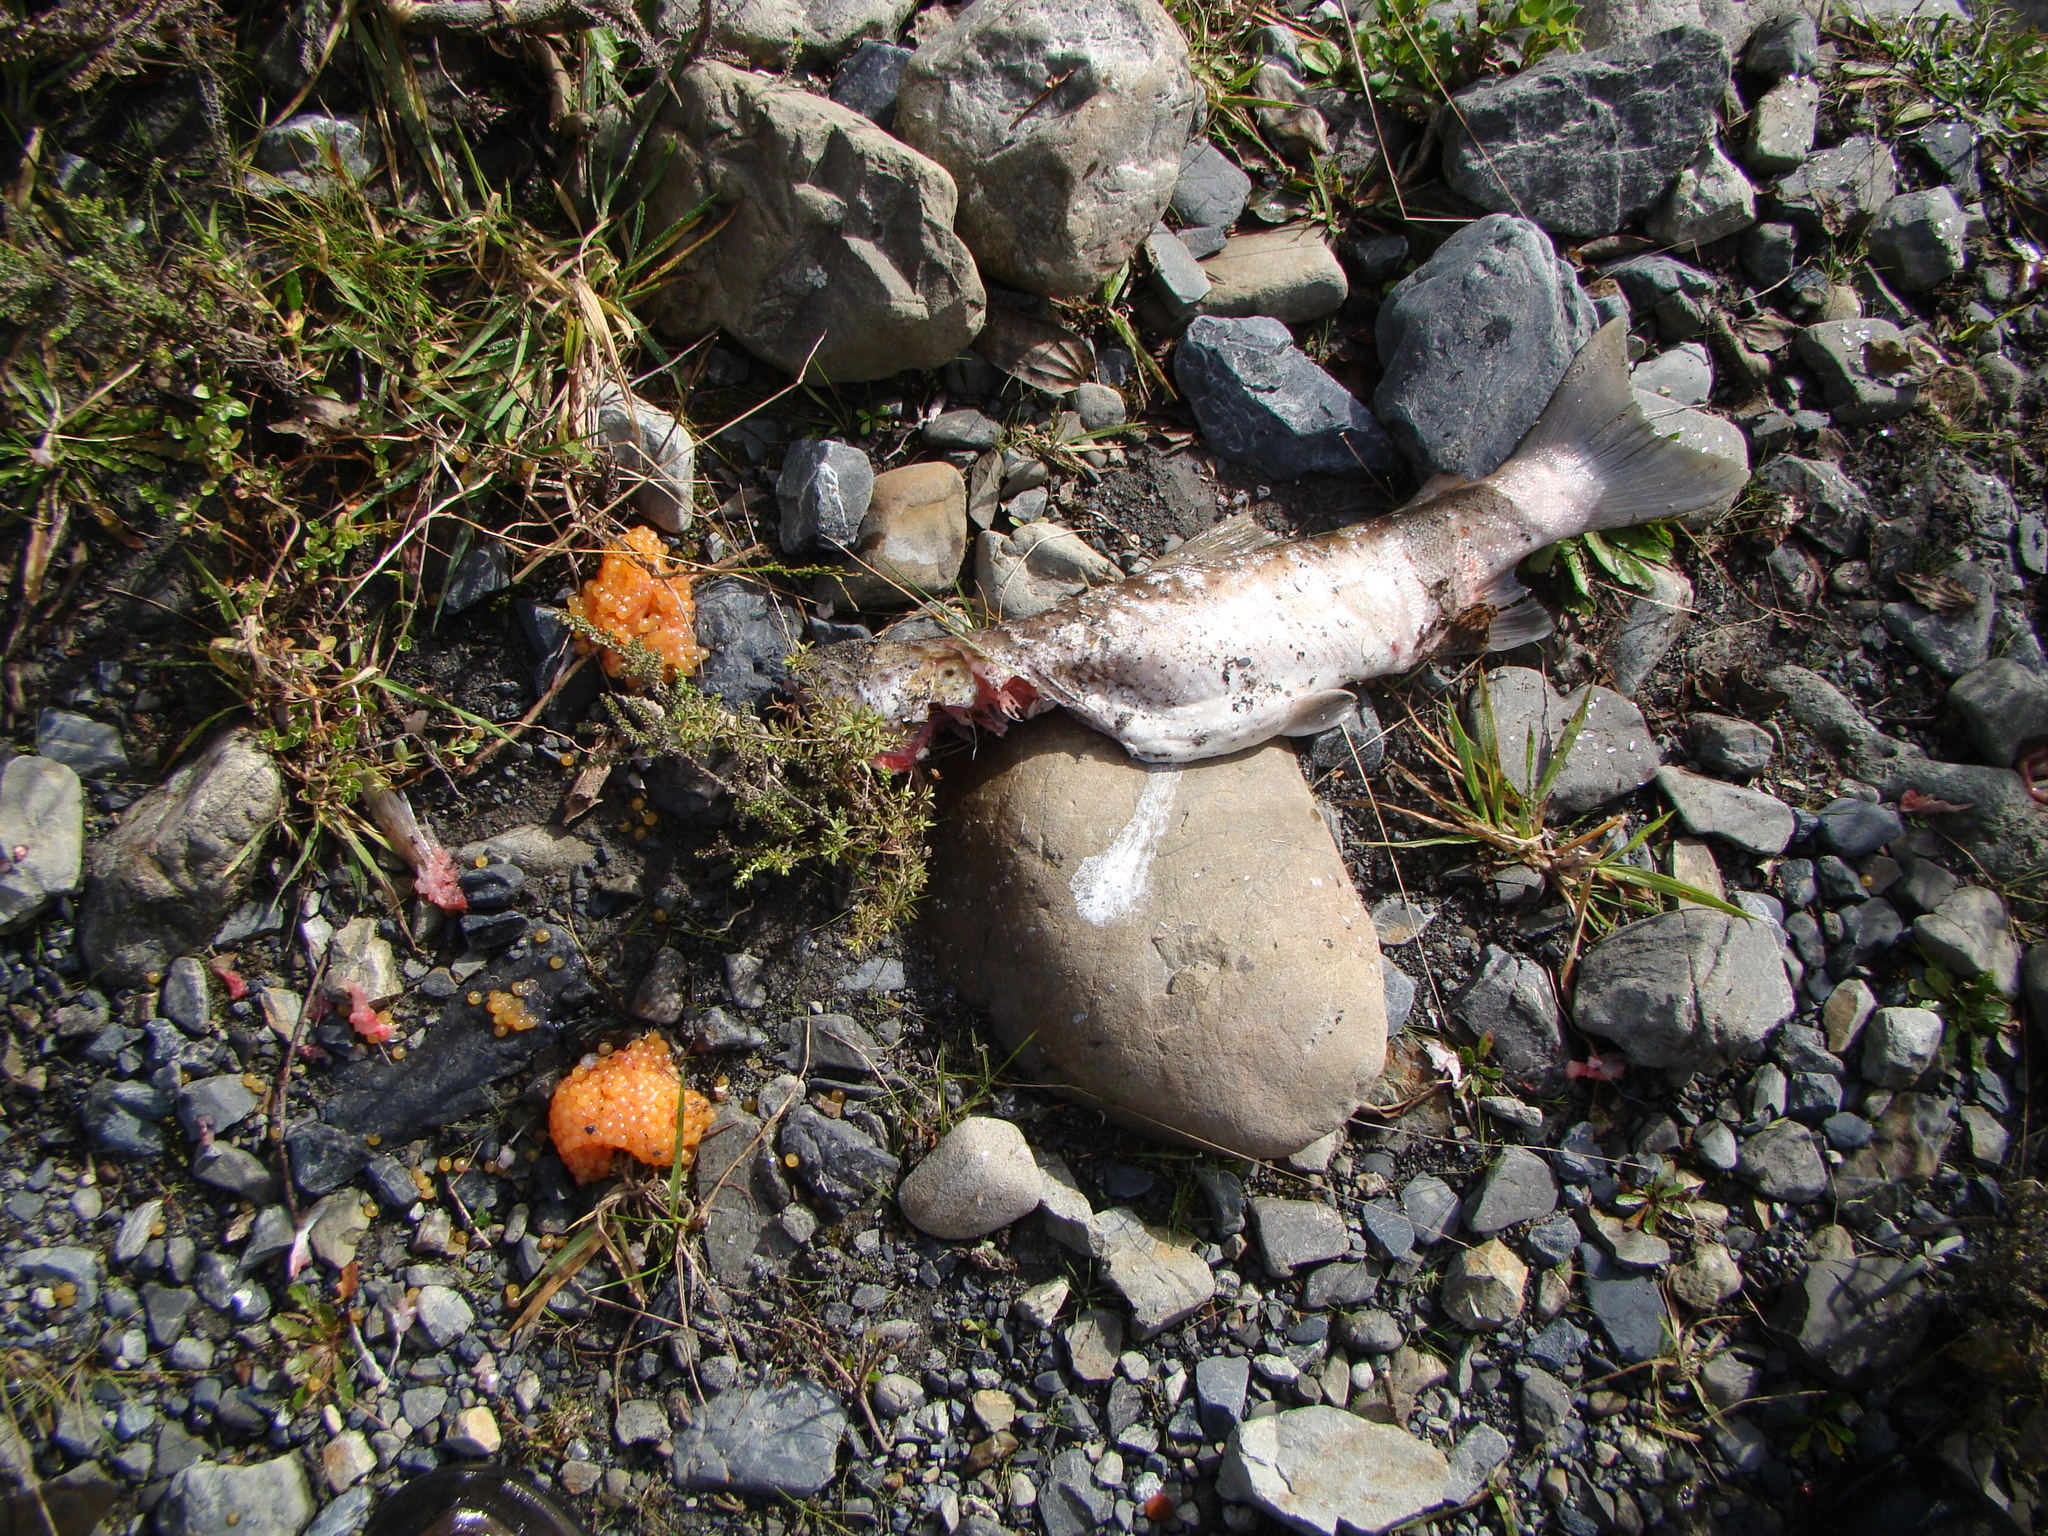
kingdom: Animalia
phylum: Chordata
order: Salmoniformes
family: Salmonidae
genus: Salmo
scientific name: Salmo trutta
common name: Brown trout
